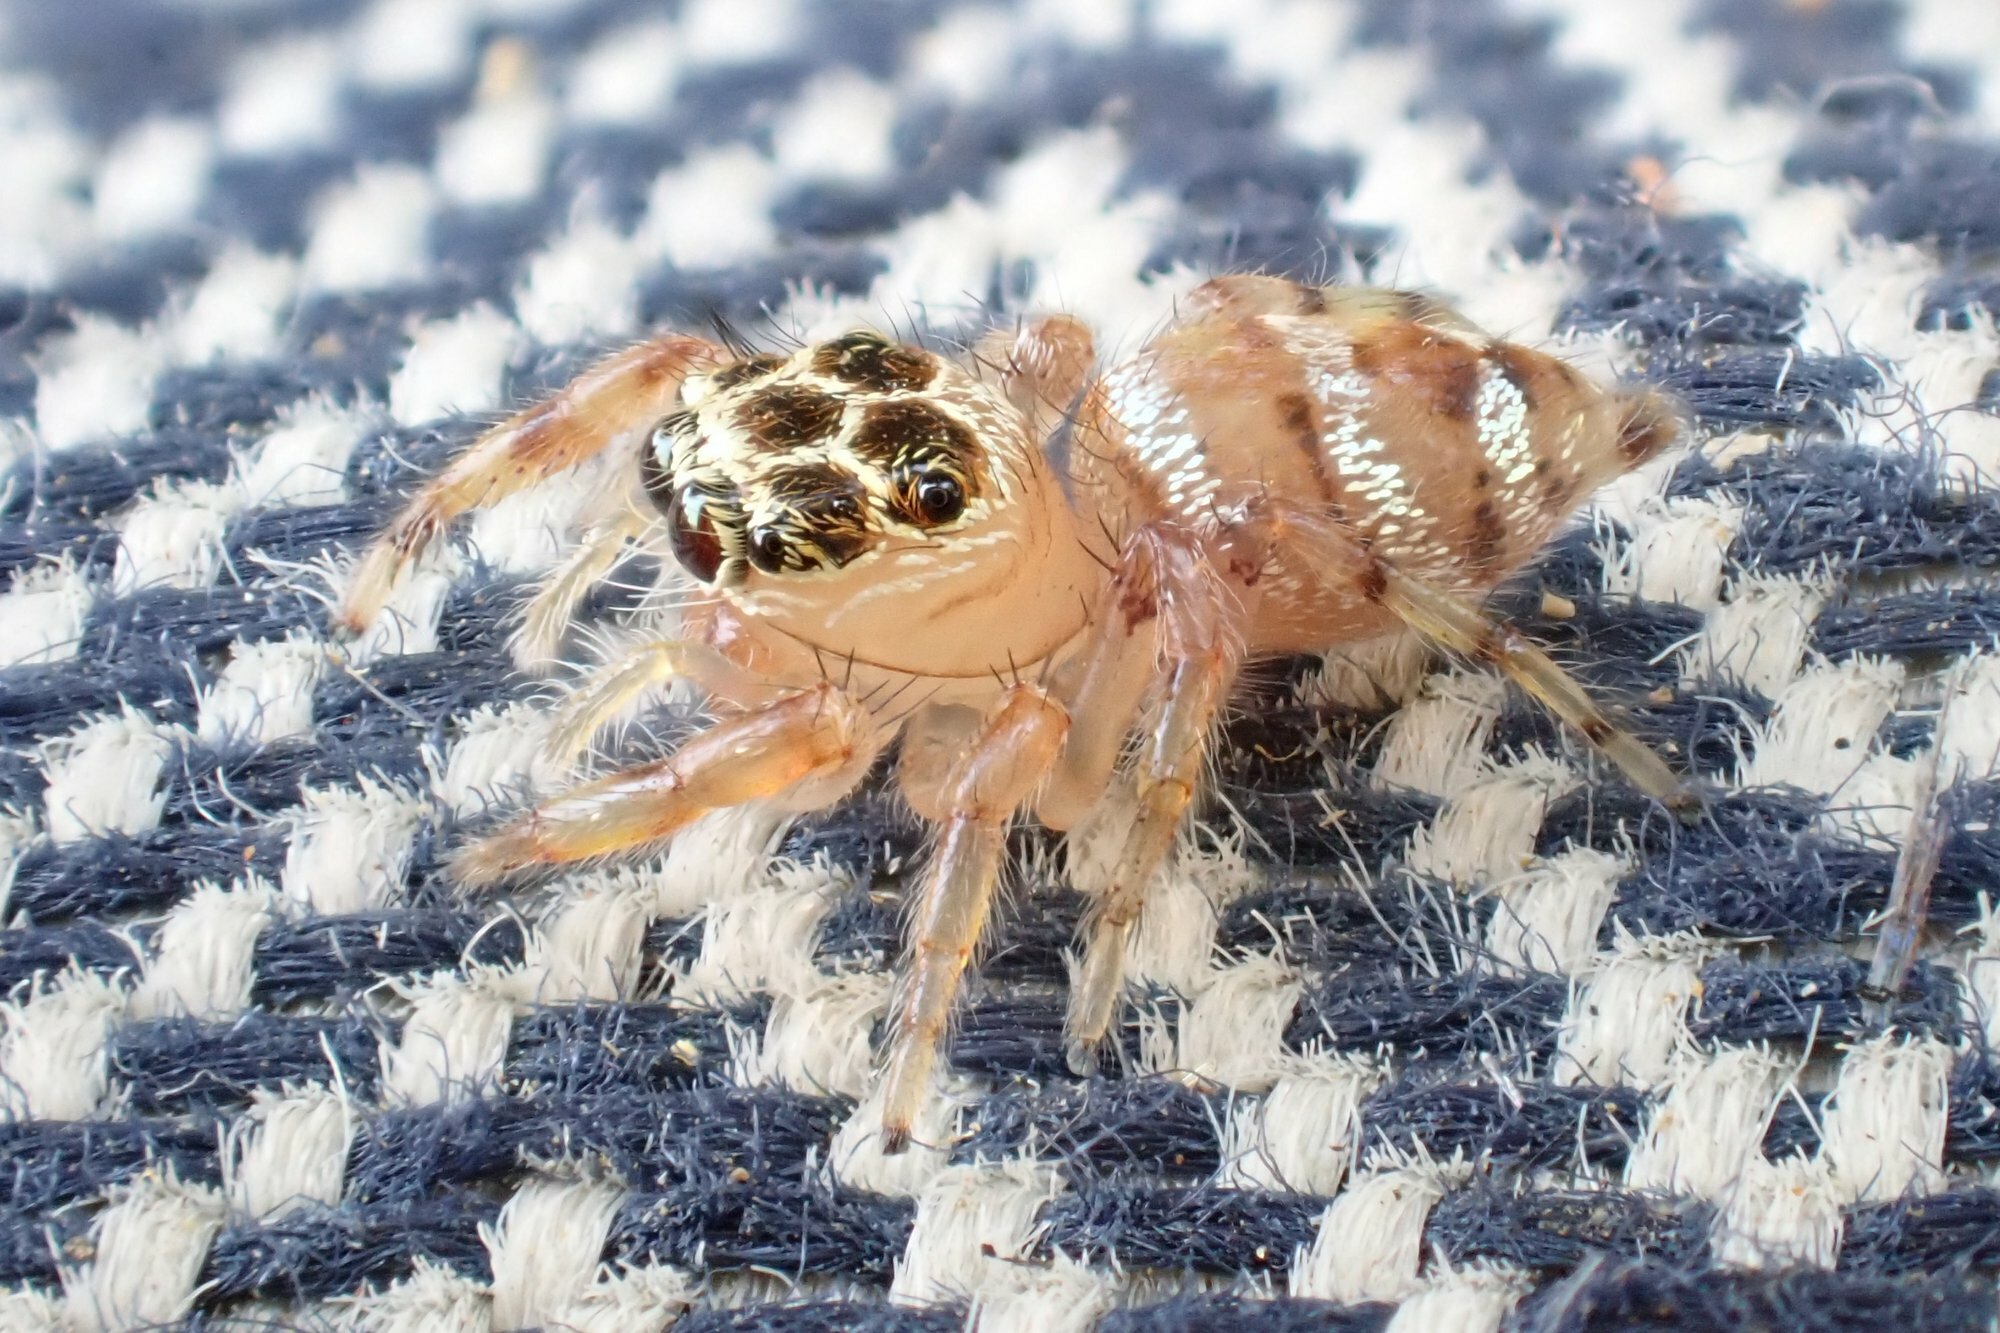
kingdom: Animalia
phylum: Arthropoda
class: Arachnida
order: Araneae
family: Salticidae
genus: Thyene
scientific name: Thyene natalii
